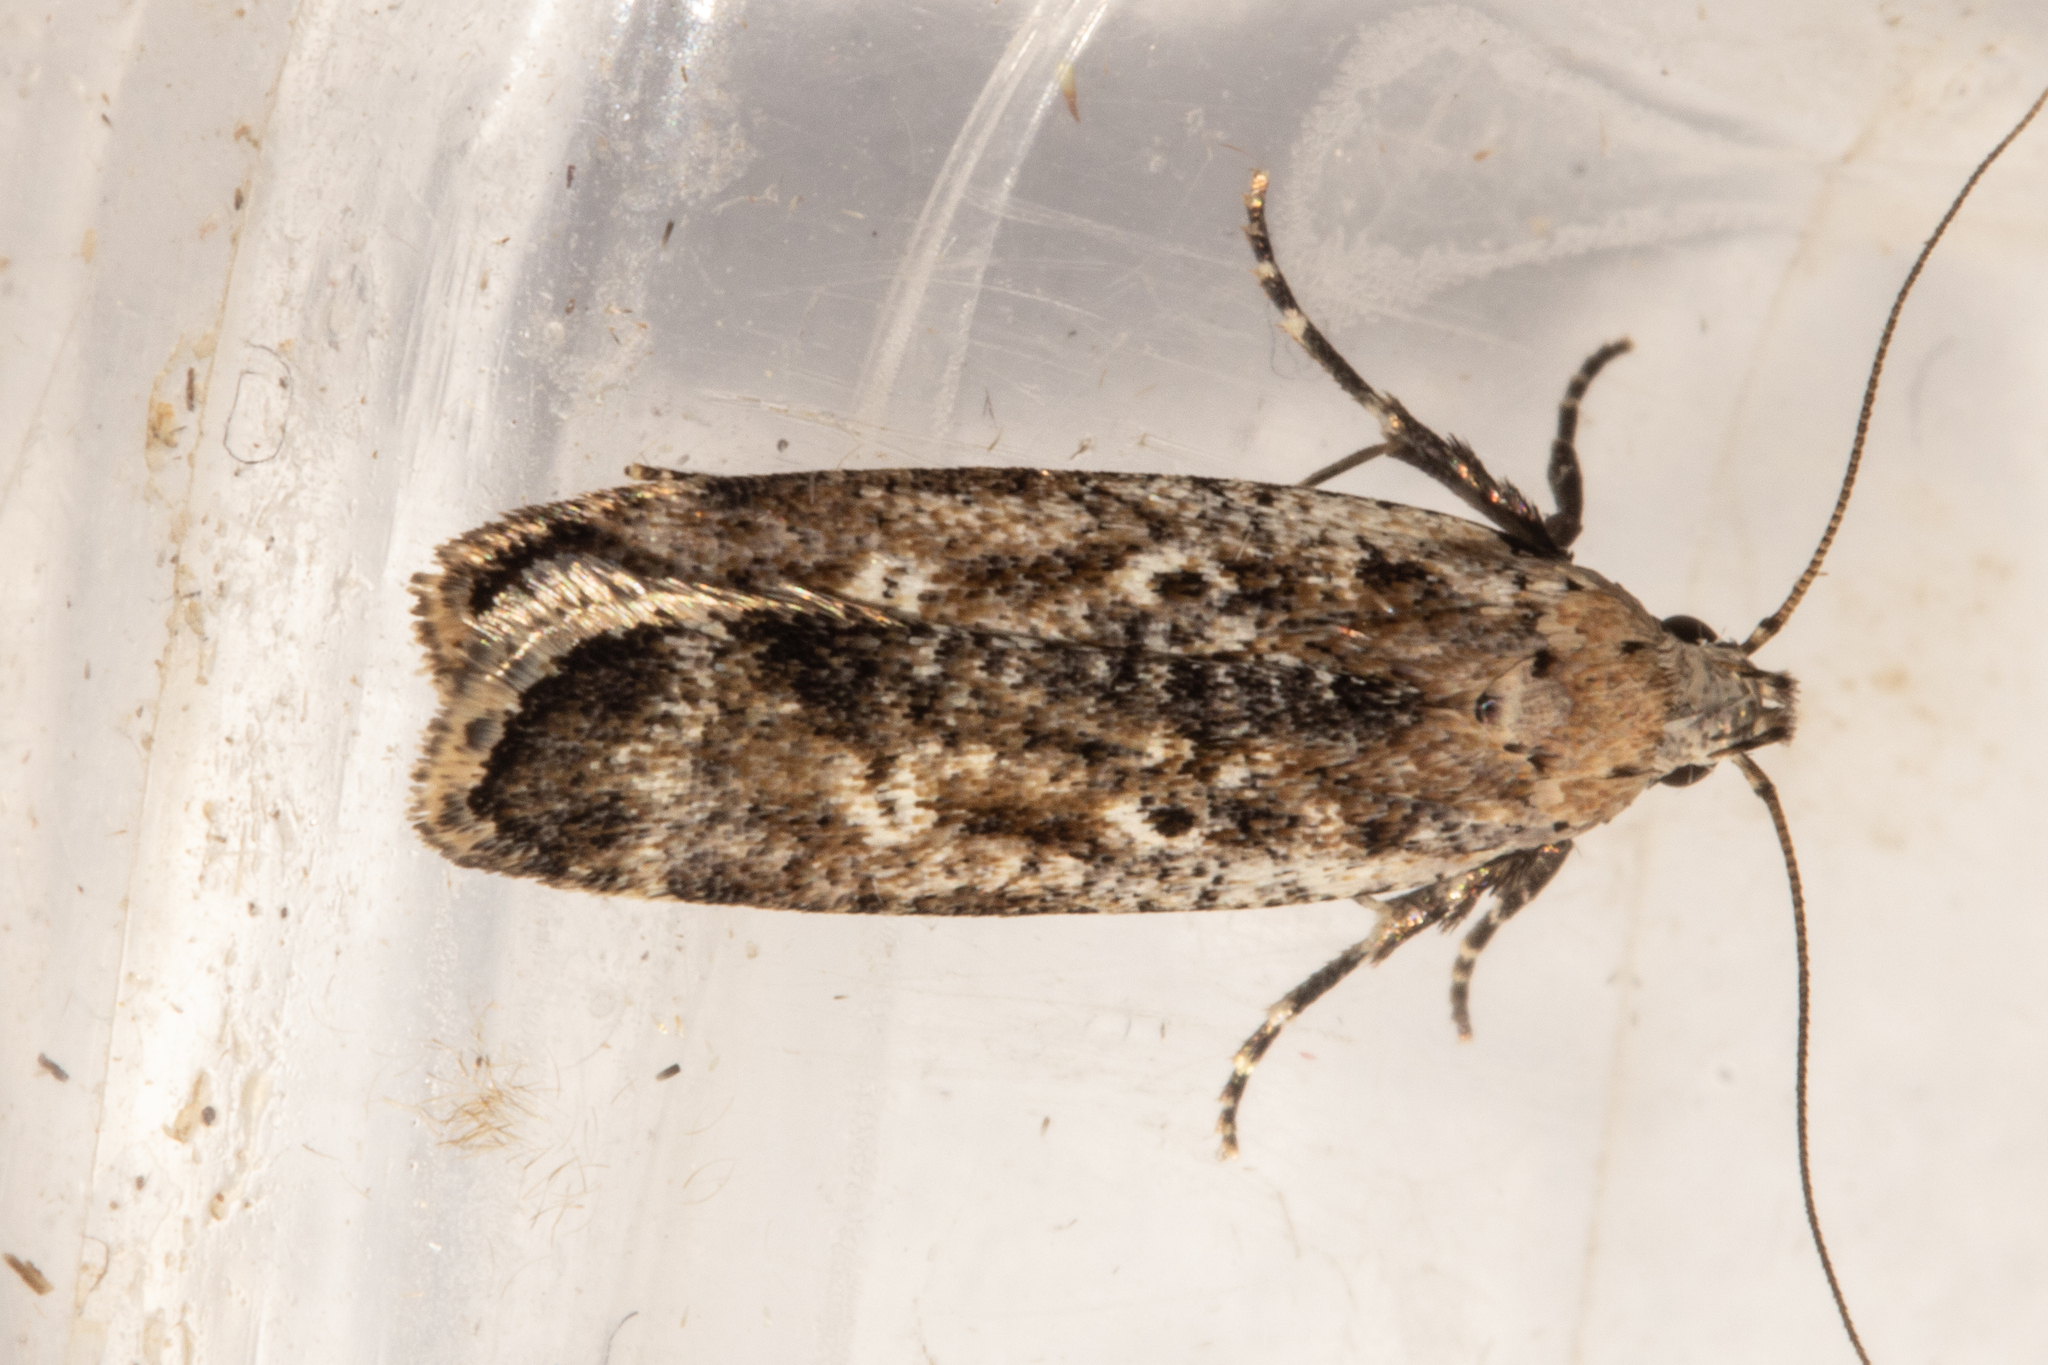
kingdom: Animalia
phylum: Arthropoda
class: Insecta
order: Lepidoptera
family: Gelechiidae
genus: Anisoplaca
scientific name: Anisoplaca achyrota
